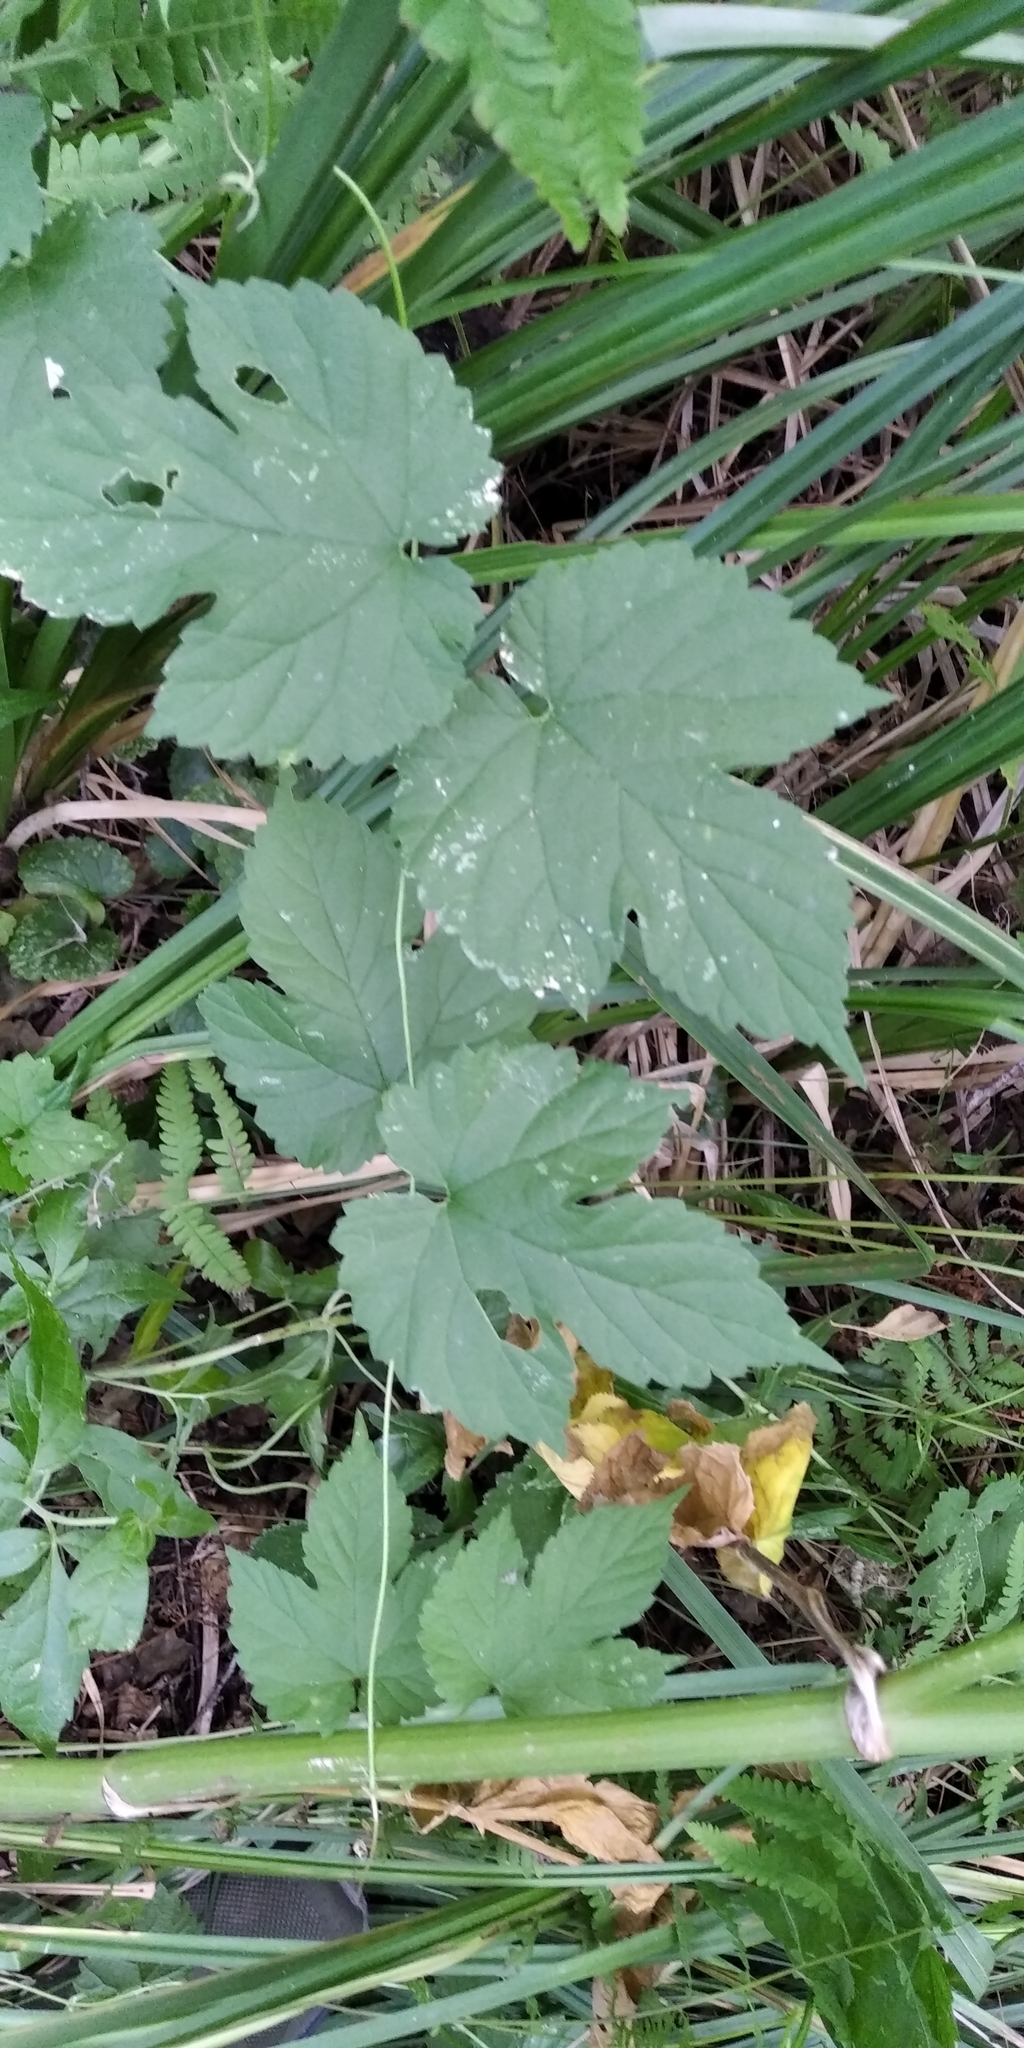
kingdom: Plantae
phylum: Tracheophyta
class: Magnoliopsida
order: Rosales
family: Cannabaceae
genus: Humulus
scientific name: Humulus lupulus
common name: Hop
